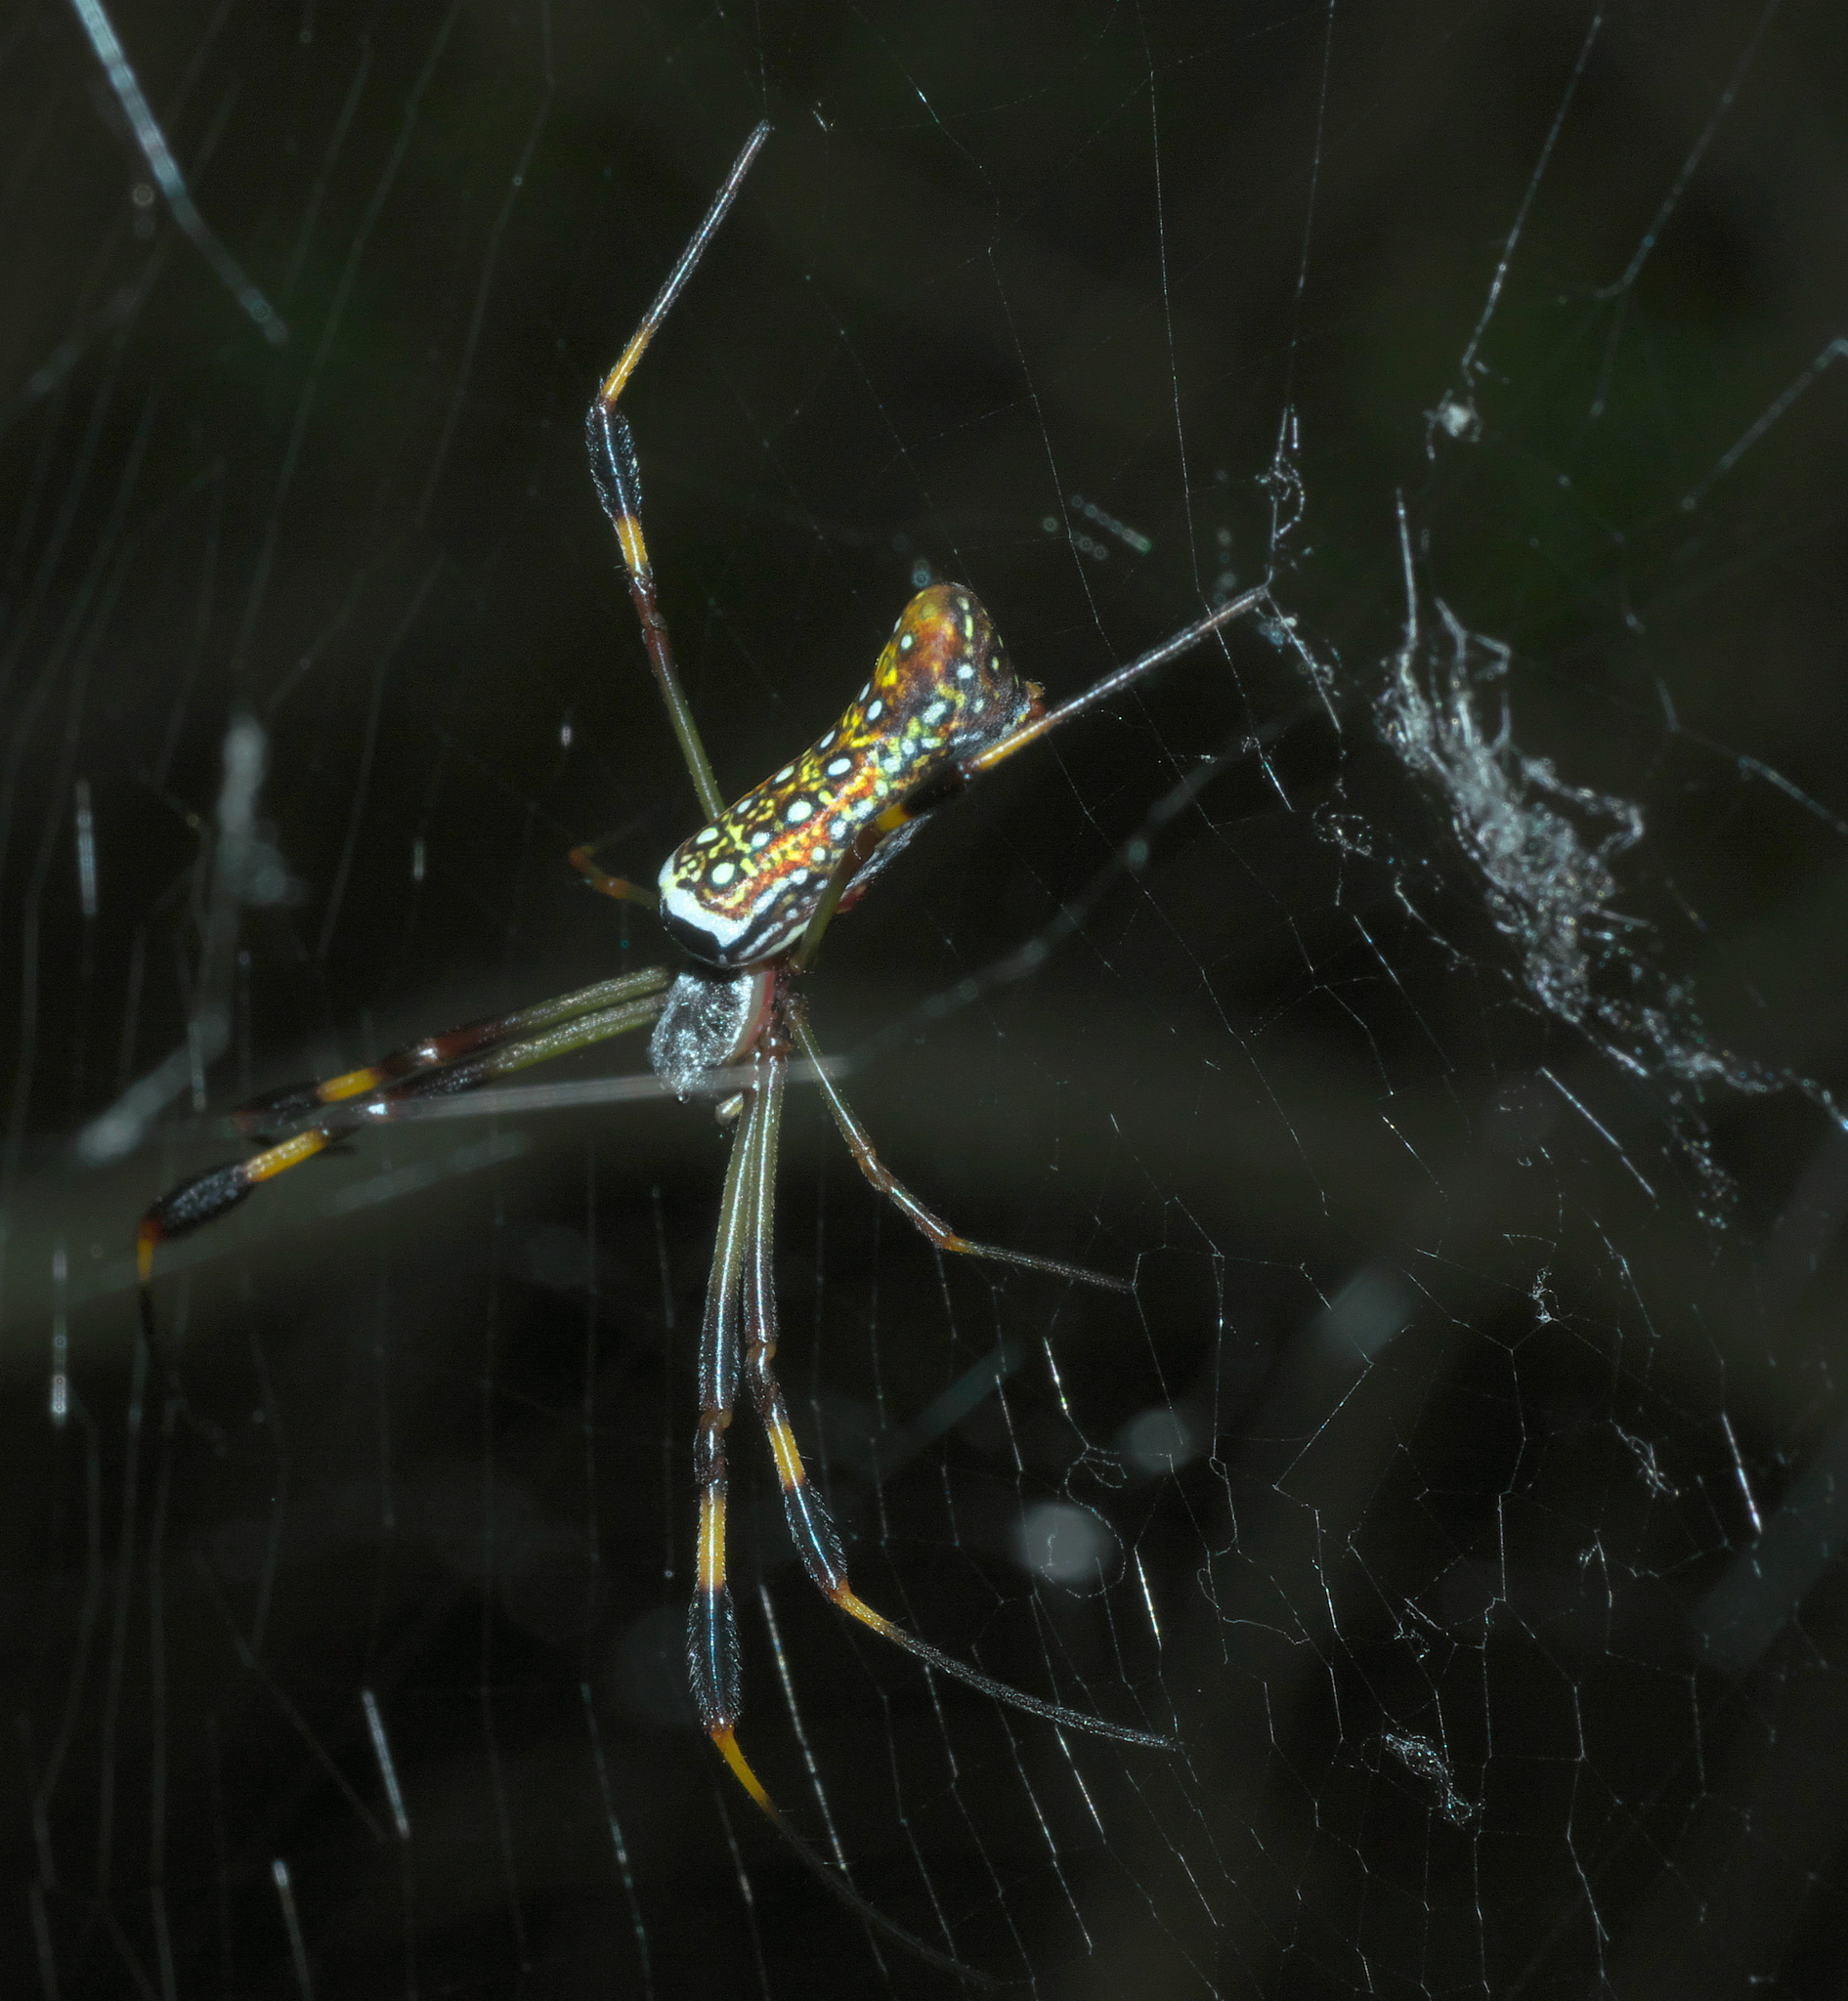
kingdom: Animalia
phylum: Arthropoda
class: Arachnida
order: Araneae
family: Araneidae
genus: Trichonephila
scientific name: Trichonephila clavipes
